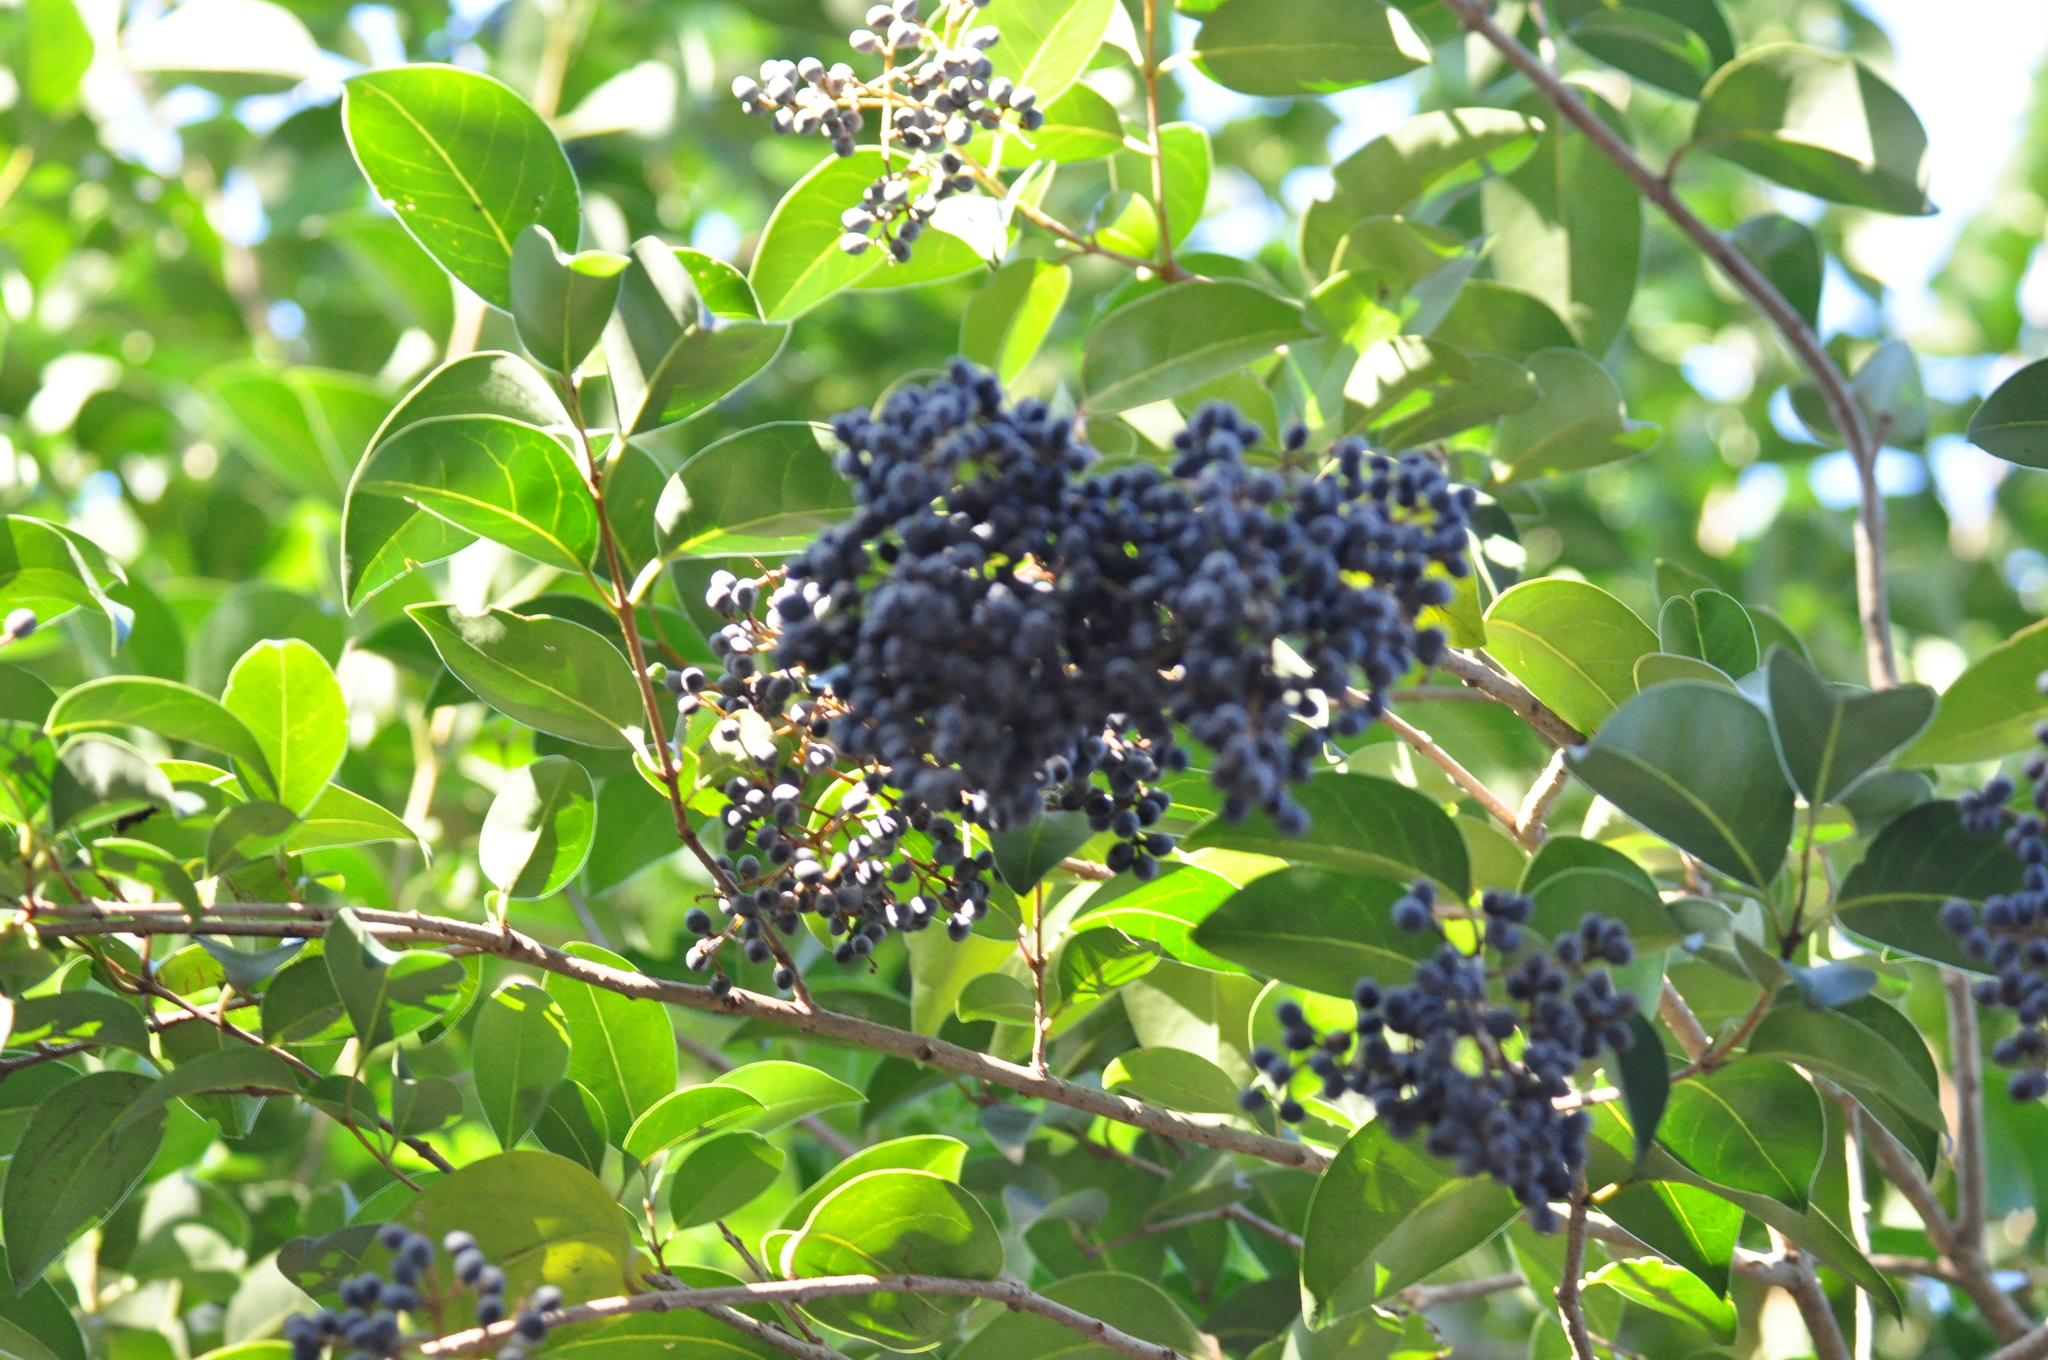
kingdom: Plantae
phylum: Tracheophyta
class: Magnoliopsida
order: Lamiales
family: Oleaceae
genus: Ligustrum
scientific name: Ligustrum lucidum
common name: Glossy privet
